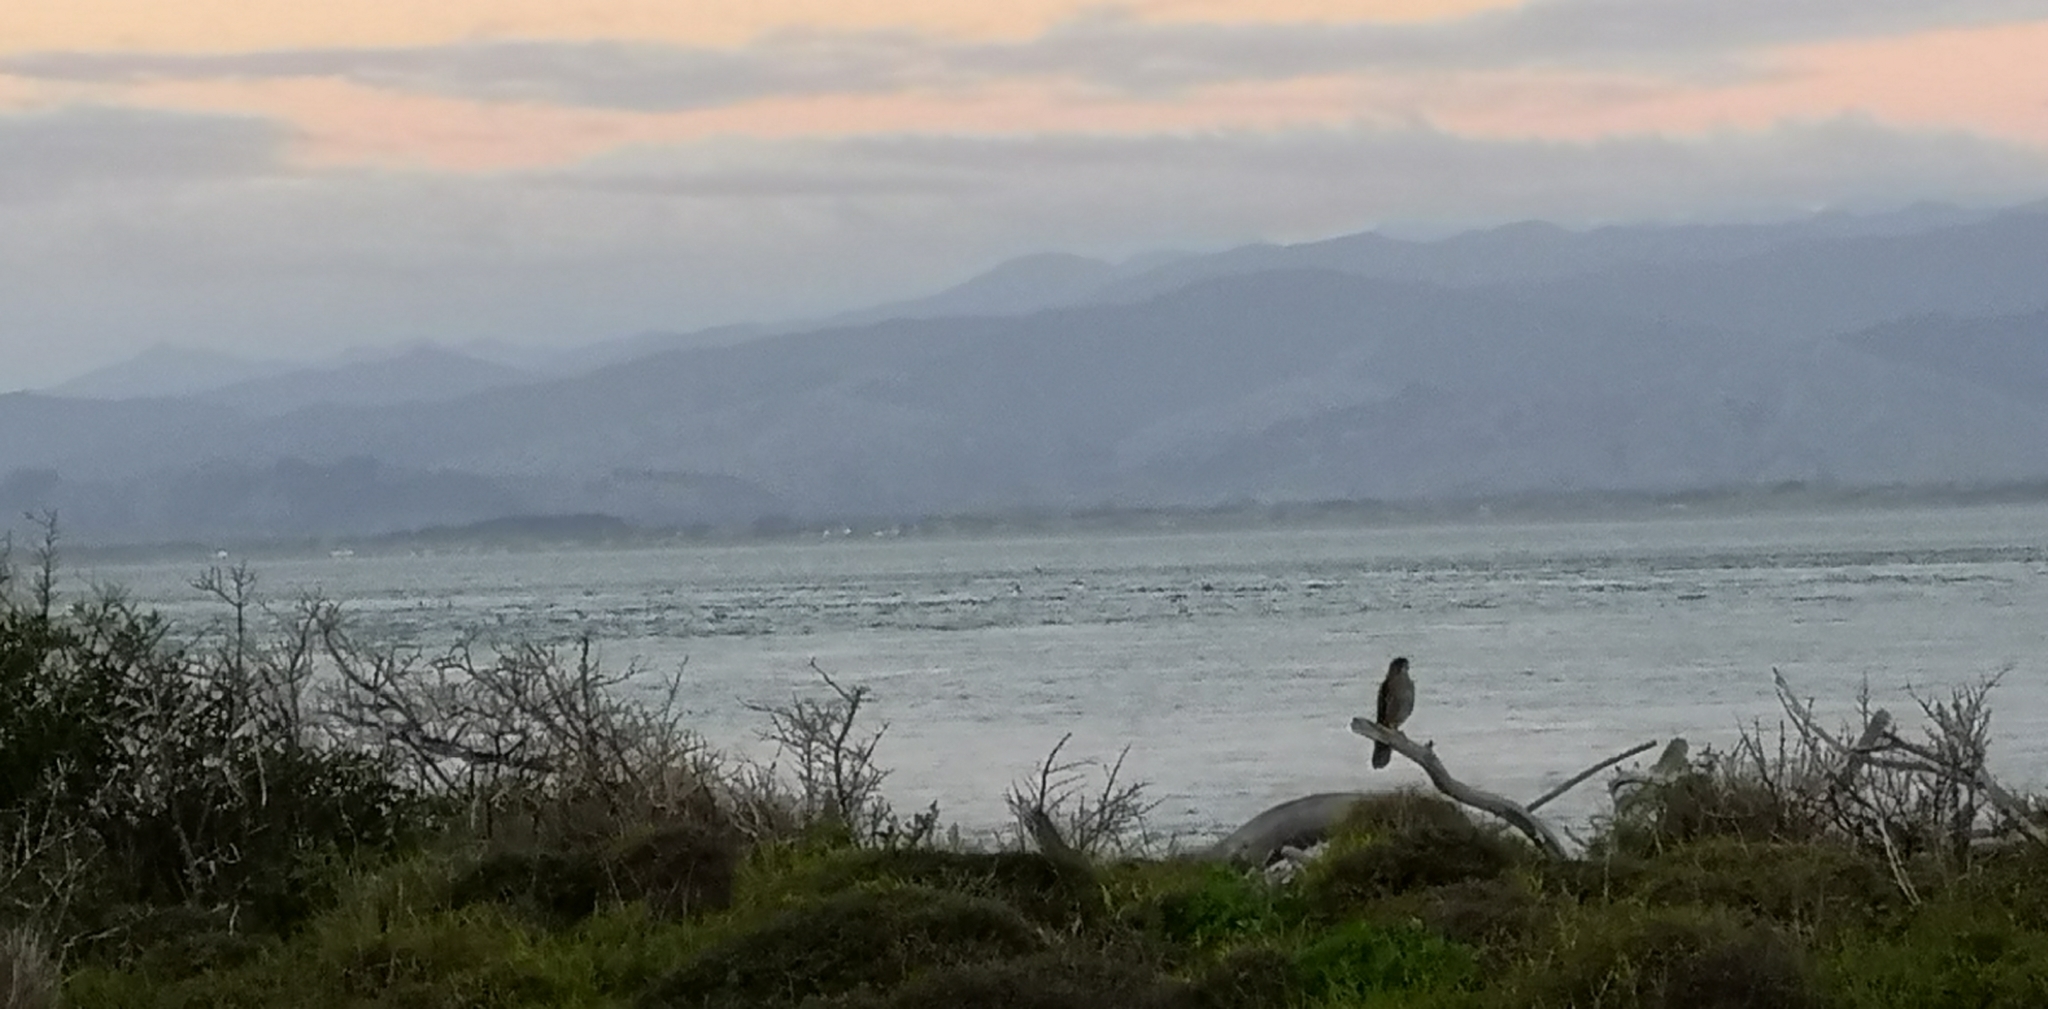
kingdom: Animalia
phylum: Chordata
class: Aves
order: Falconiformes
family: Falconidae
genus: Falco
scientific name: Falco novaeseelandiae
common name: New zealand falcon
